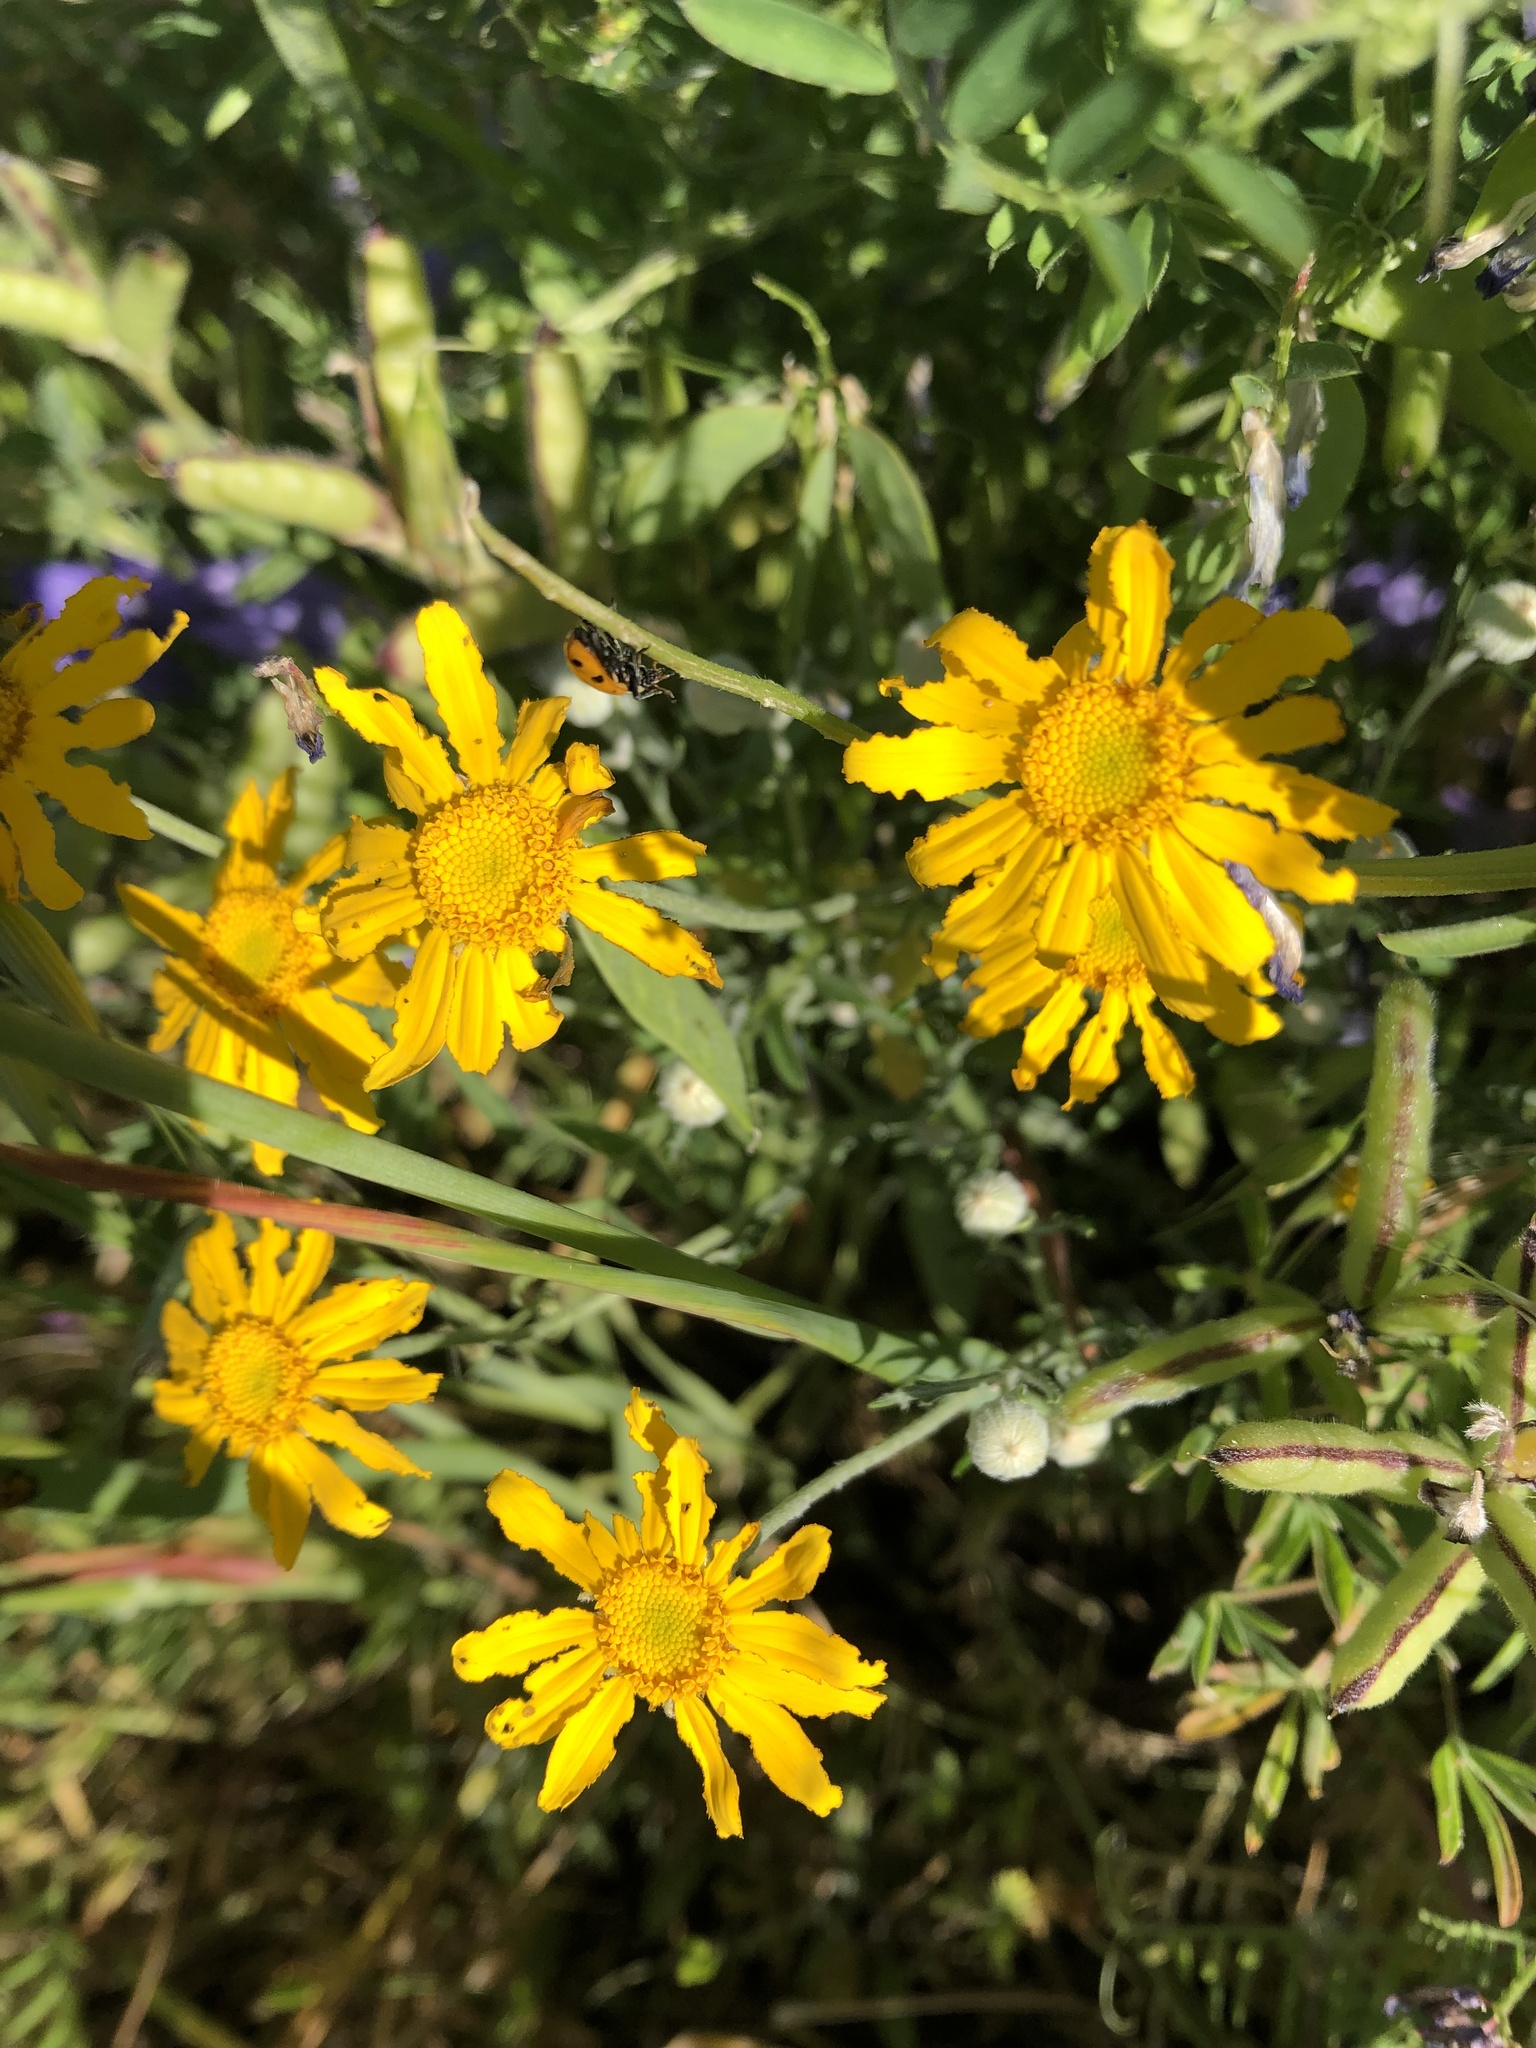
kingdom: Plantae
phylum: Tracheophyta
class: Magnoliopsida
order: Asterales
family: Asteraceae
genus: Eriophyllum
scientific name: Eriophyllum lanatum
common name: Common woolly-sunflower
